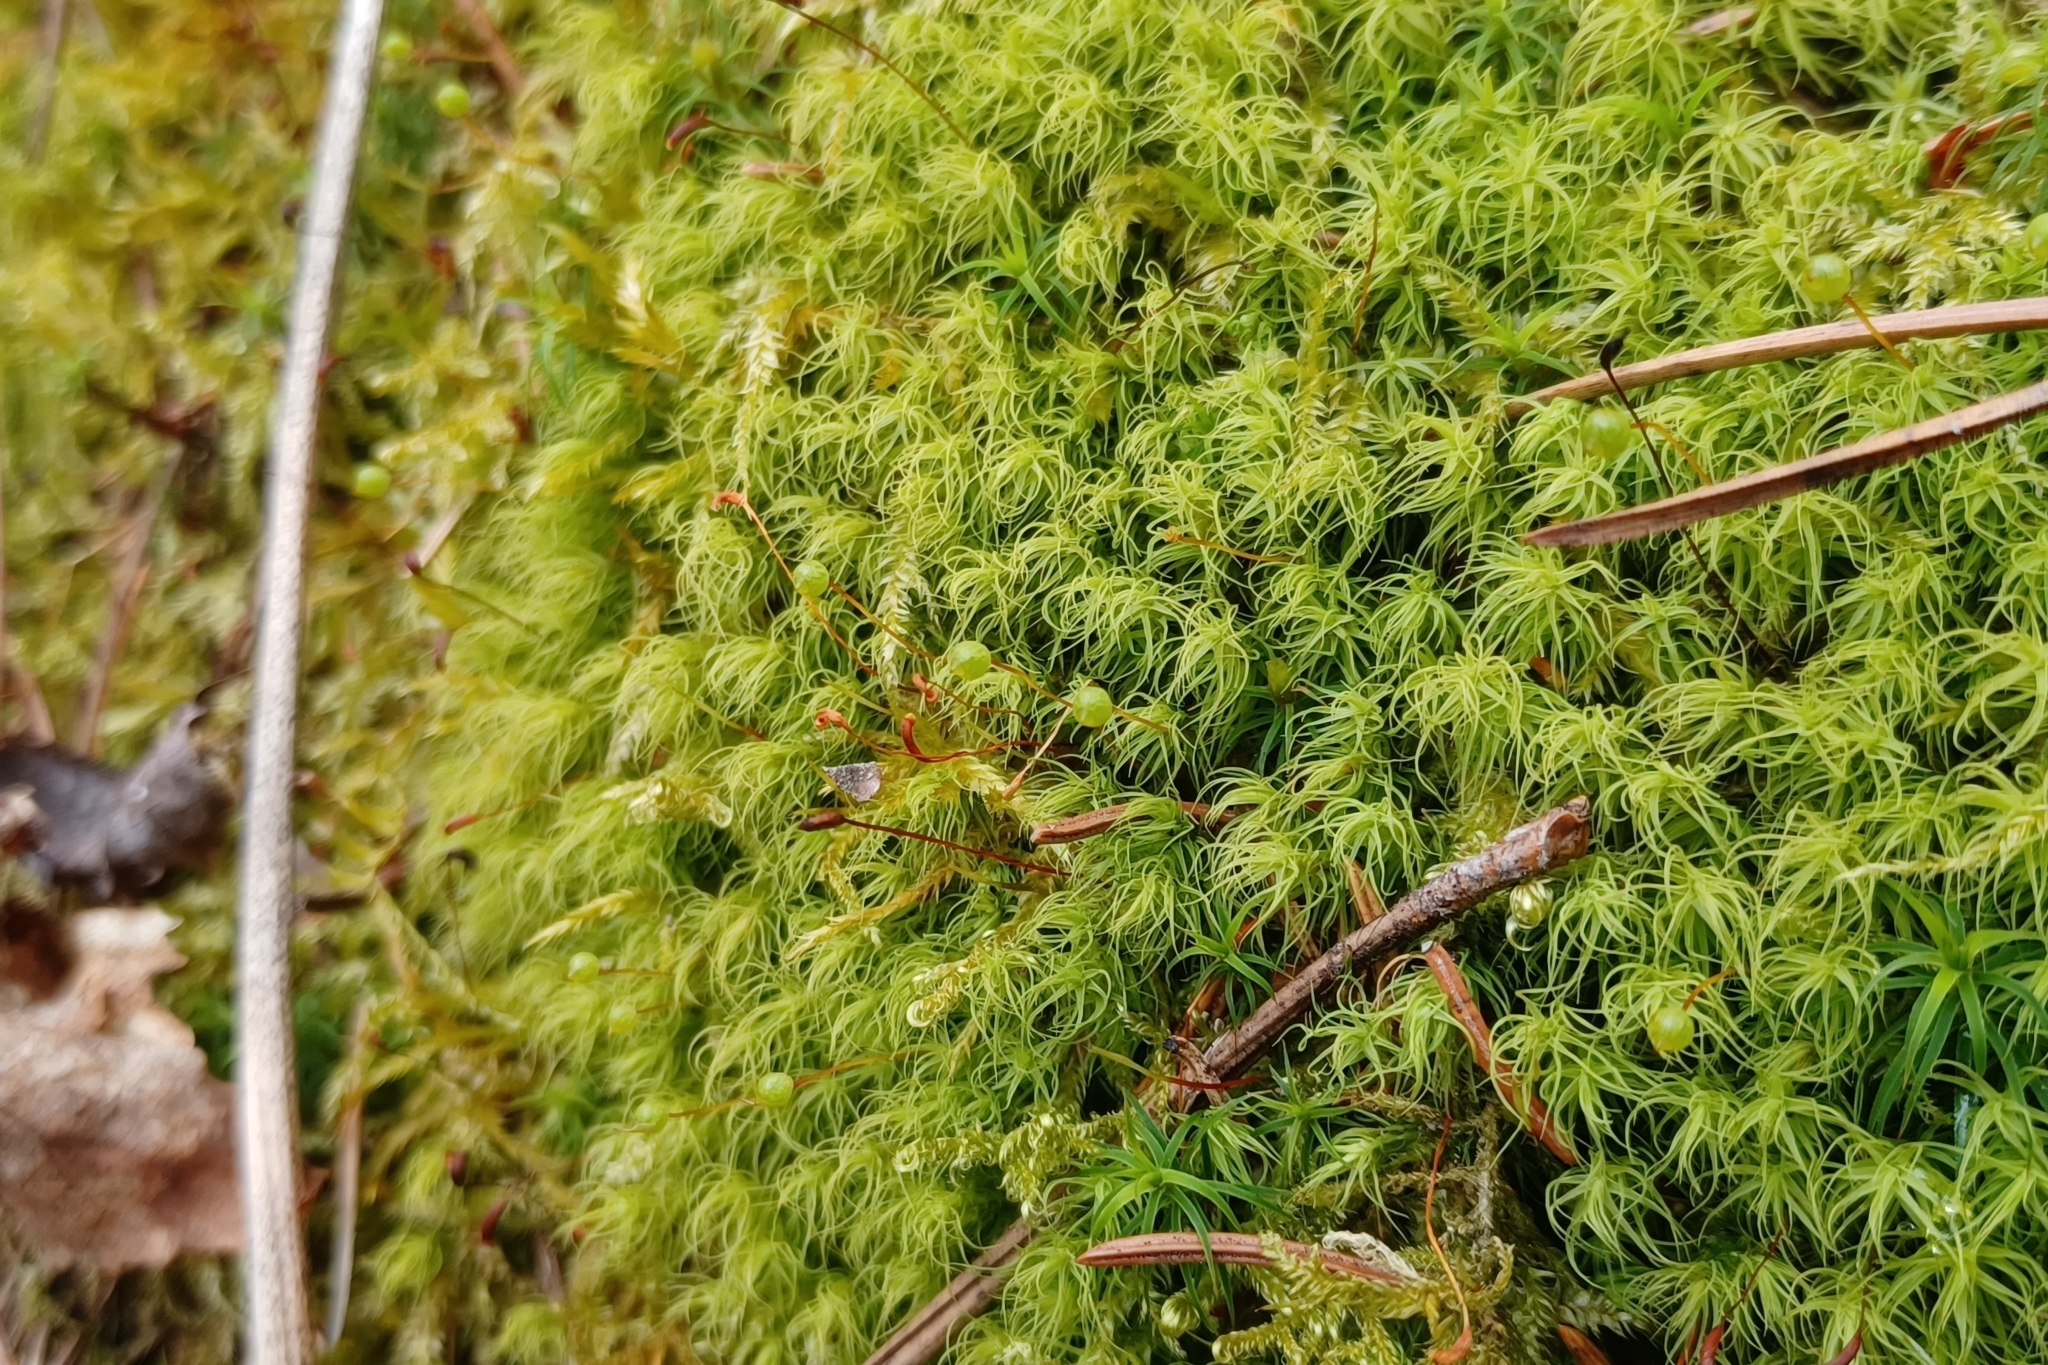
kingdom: Plantae
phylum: Bryophyta
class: Bryopsida
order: Bartramiales
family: Bartramiaceae
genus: Bartramia
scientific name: Bartramia ithyphylla
